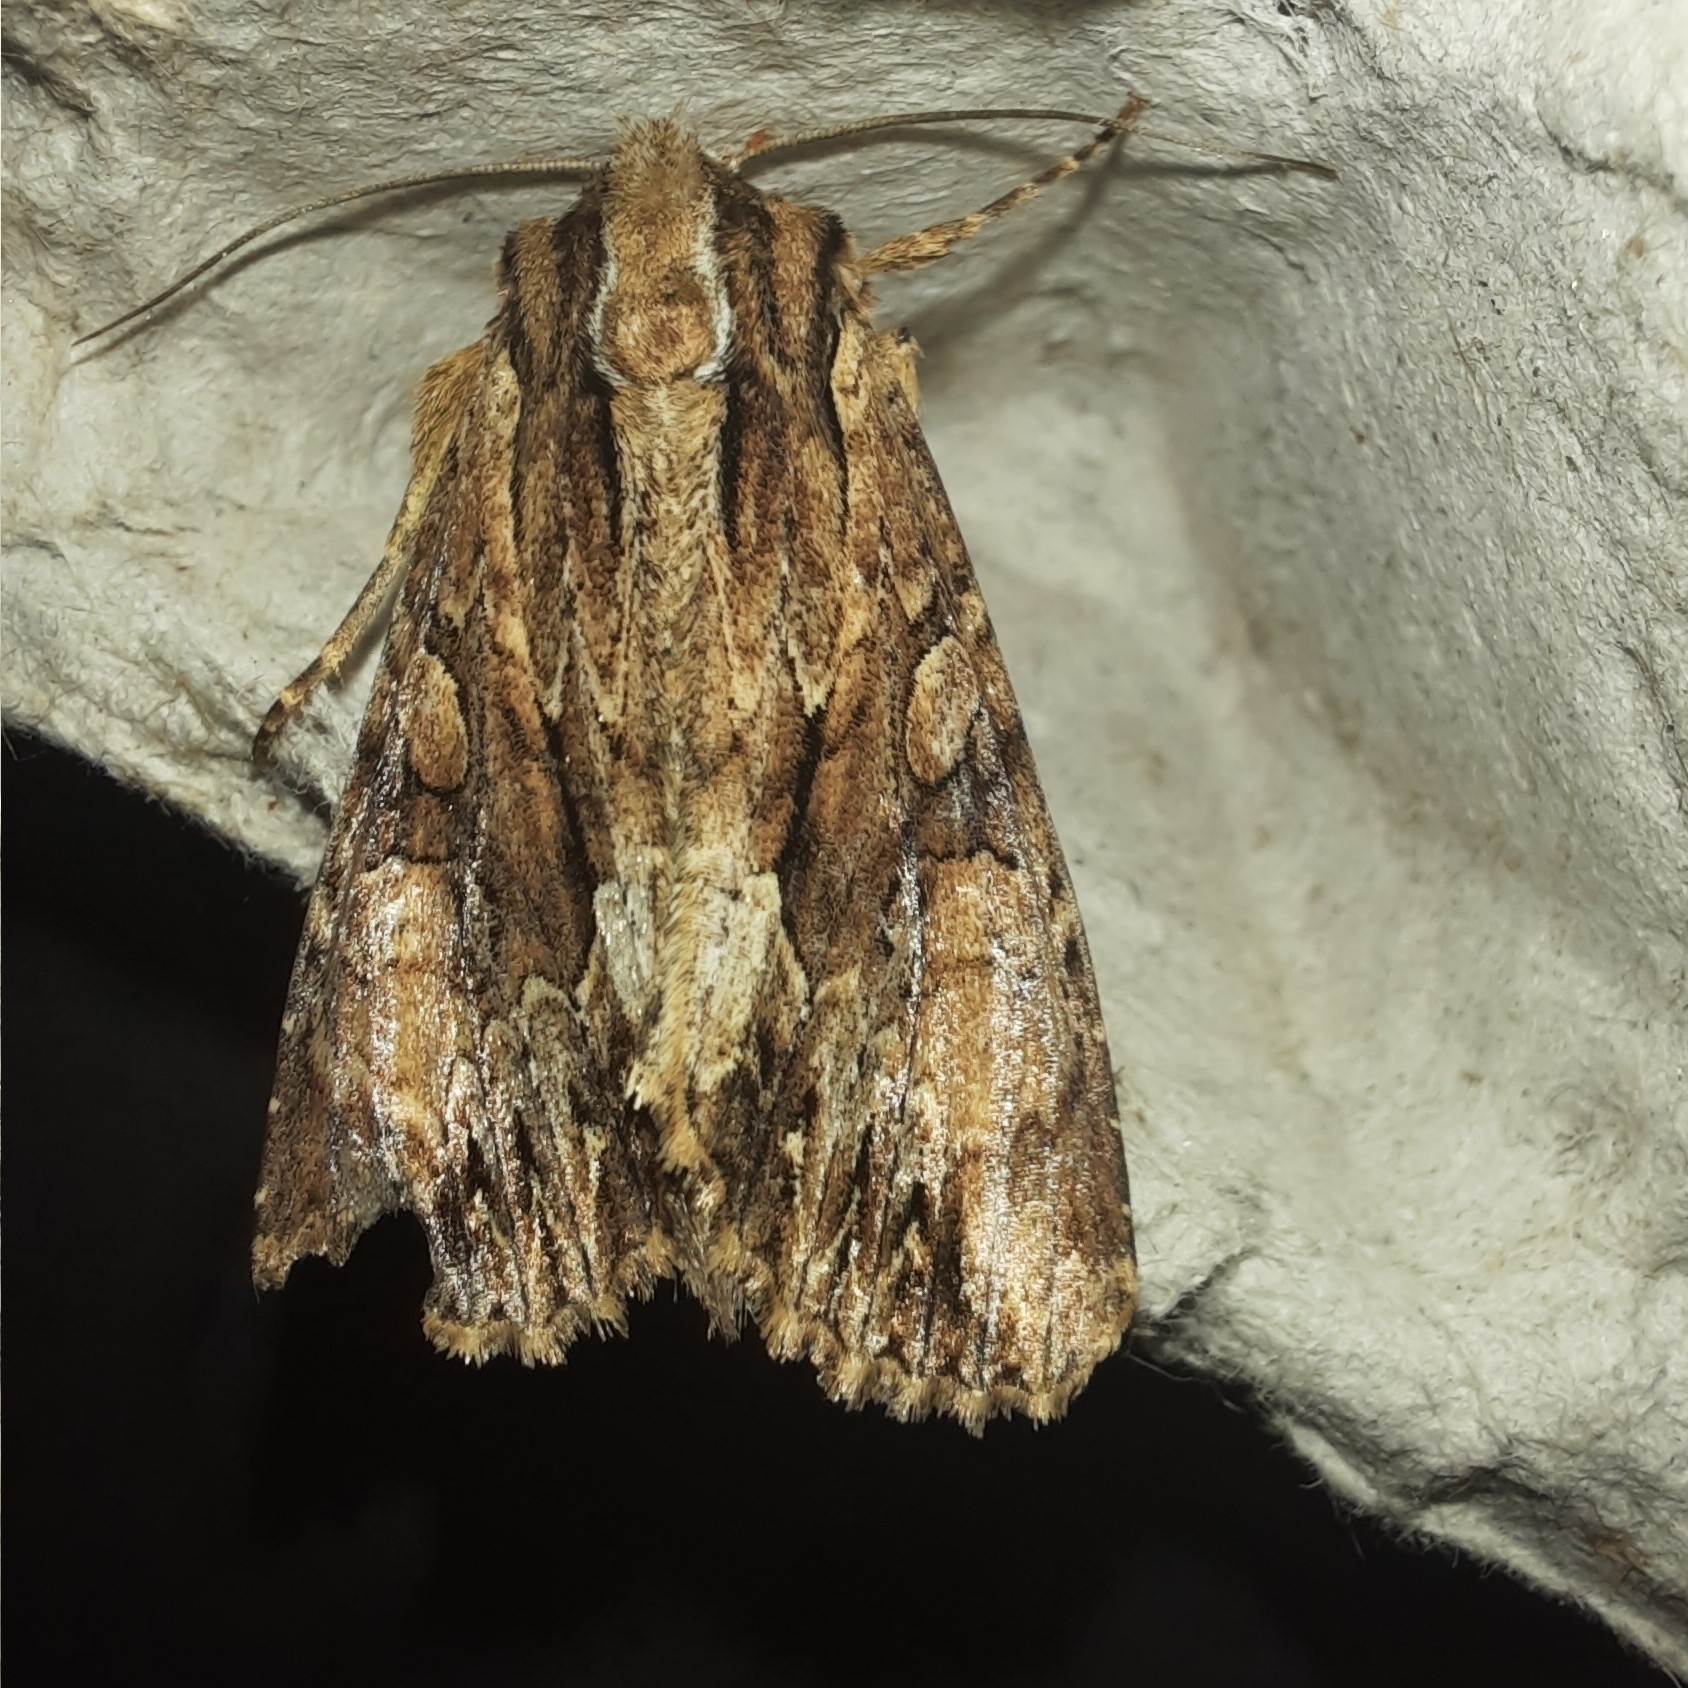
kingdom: Animalia
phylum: Arthropoda
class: Insecta
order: Lepidoptera
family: Noctuidae
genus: Apamea
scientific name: Apamea monoglypha
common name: Dark arches
